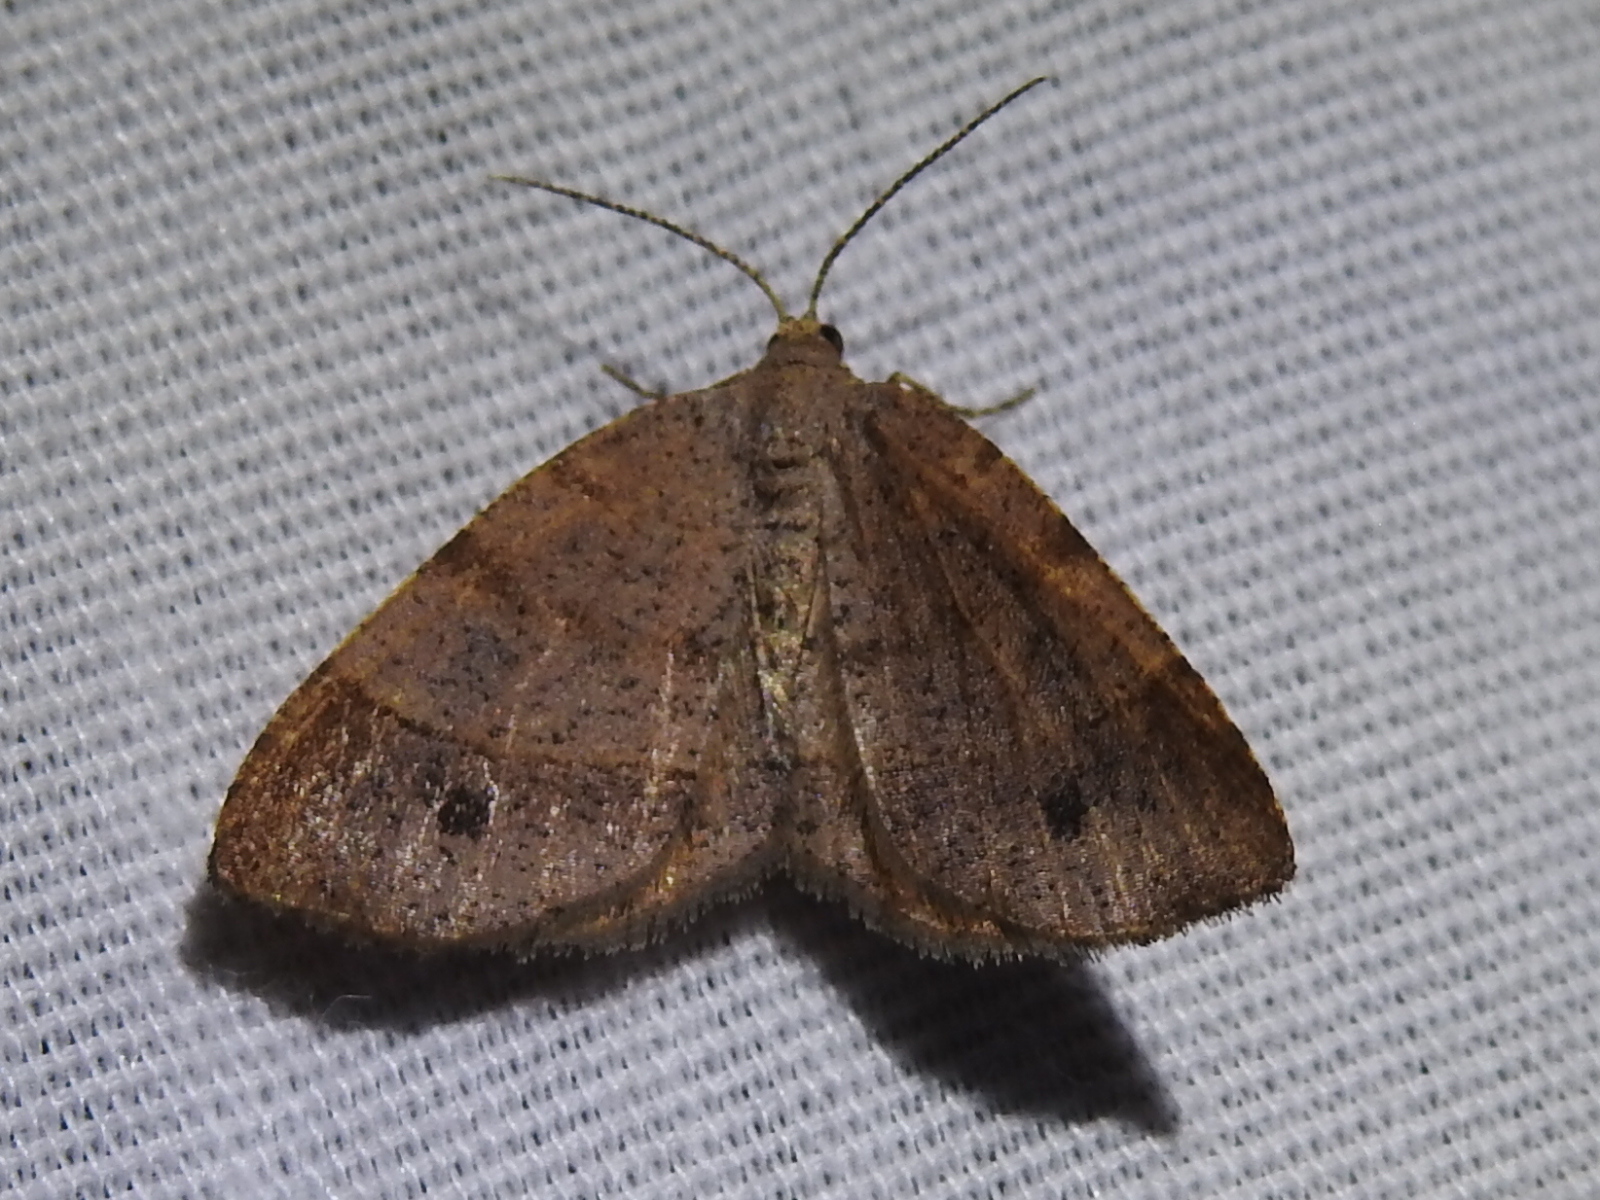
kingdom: Animalia
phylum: Arthropoda
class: Insecta
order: Lepidoptera
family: Geometridae
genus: Mellilla
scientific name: Mellilla xanthometata
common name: Orange wing moth
